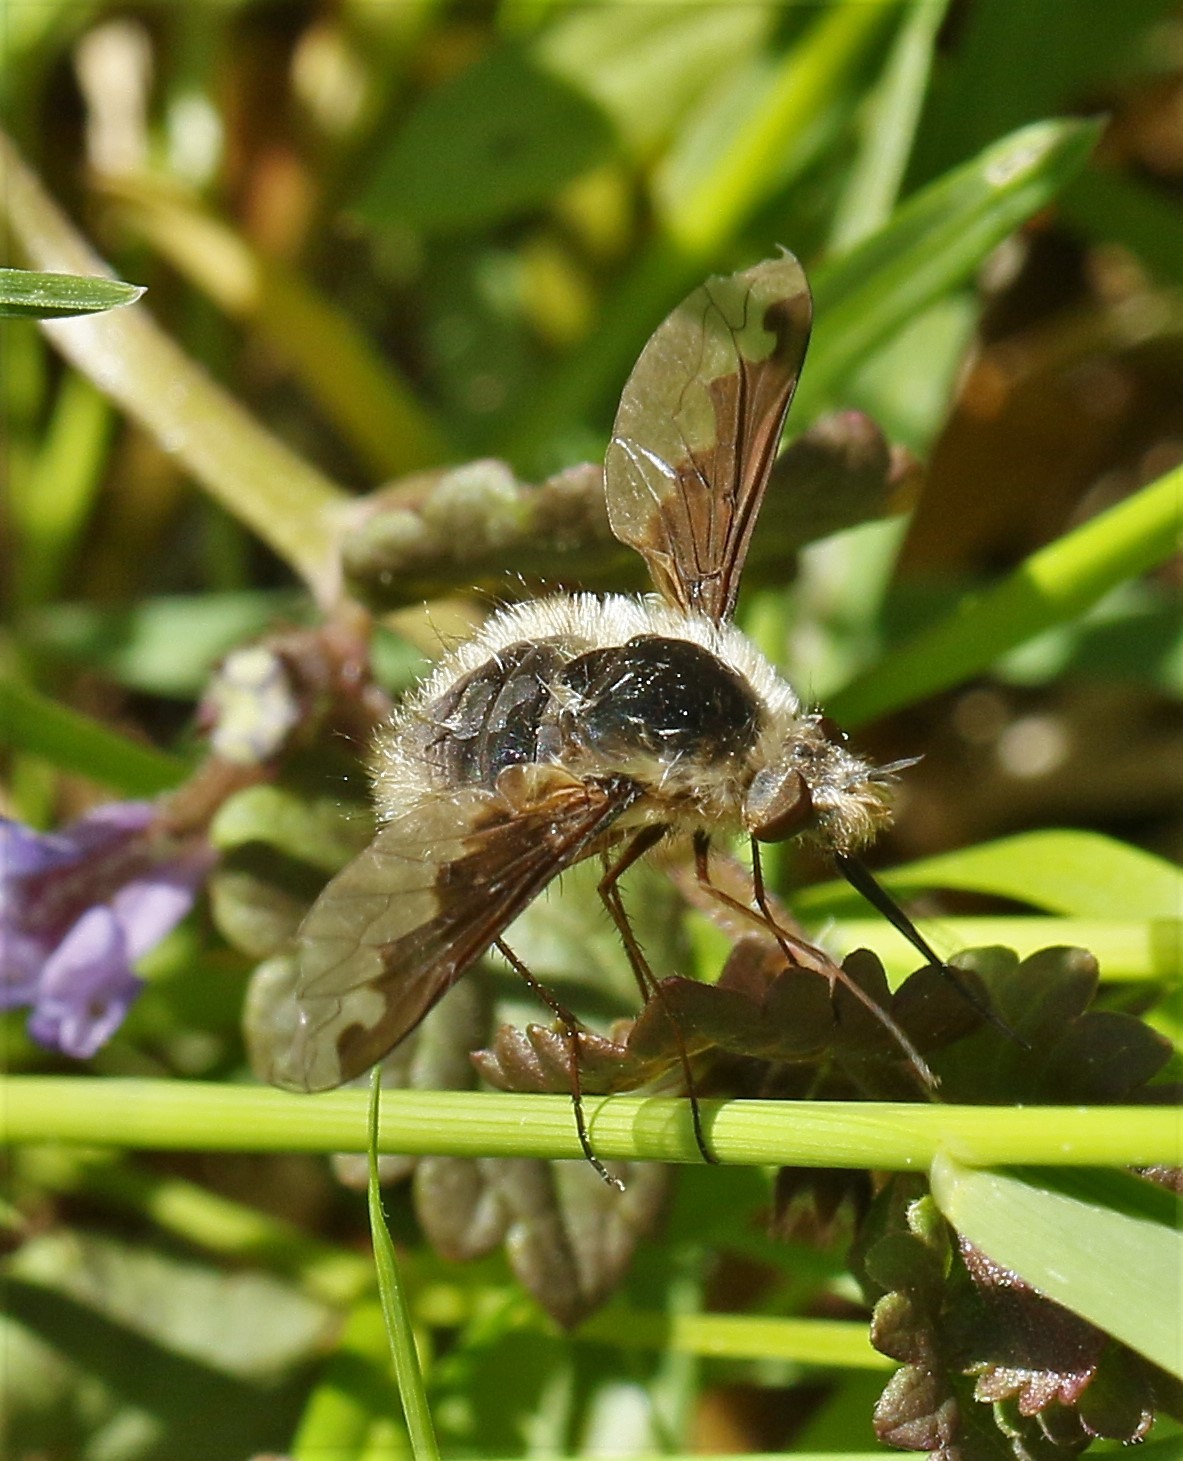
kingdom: Animalia
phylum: Arthropoda
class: Insecta
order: Diptera
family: Bombyliidae
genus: Bombylius
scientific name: Bombylius major
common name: Bee fly
